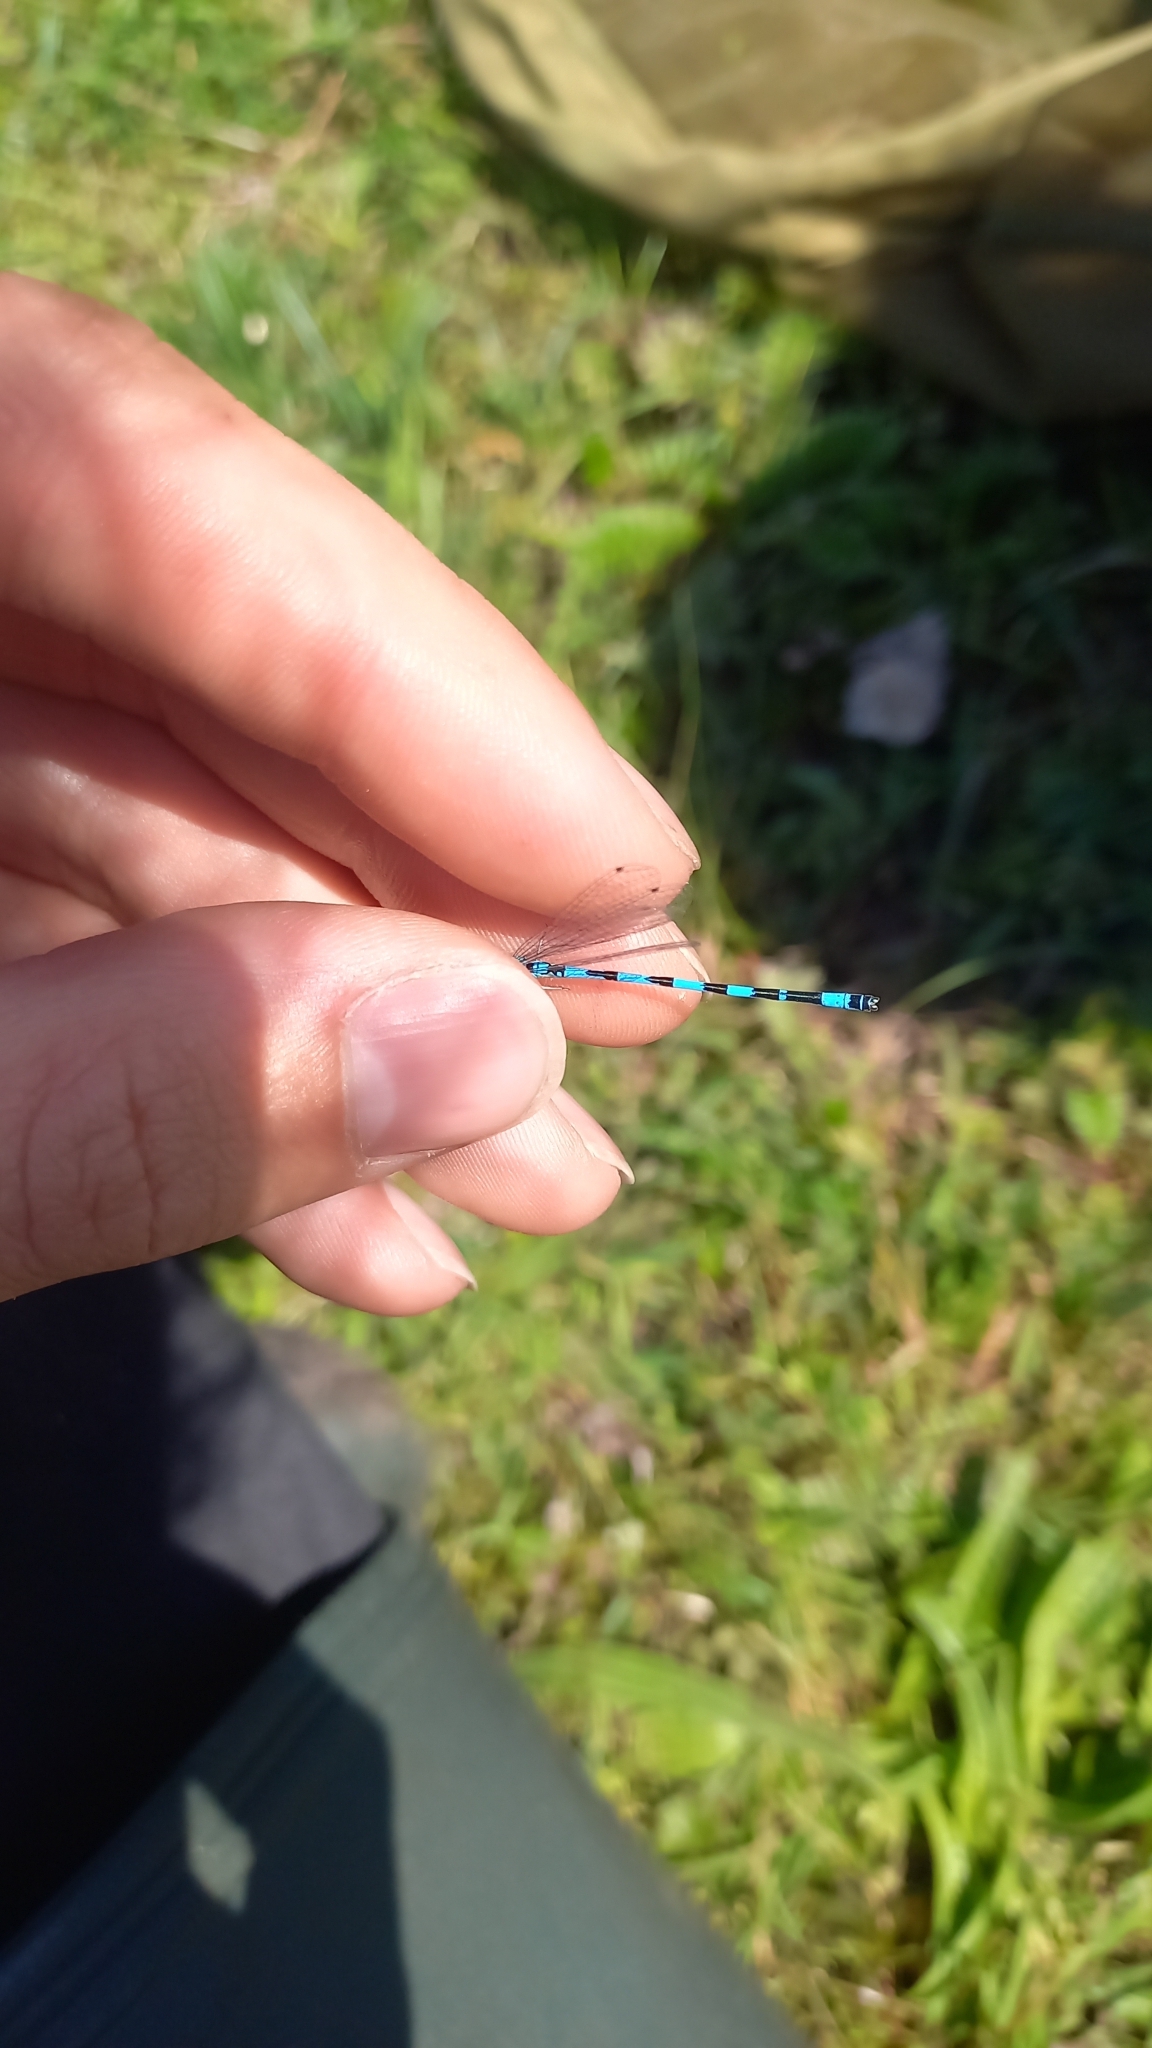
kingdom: Animalia
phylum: Arthropoda
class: Insecta
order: Odonata
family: Coenagrionidae
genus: Coenagrion
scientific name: Coenagrion mercuriale
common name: Southern damselfly
